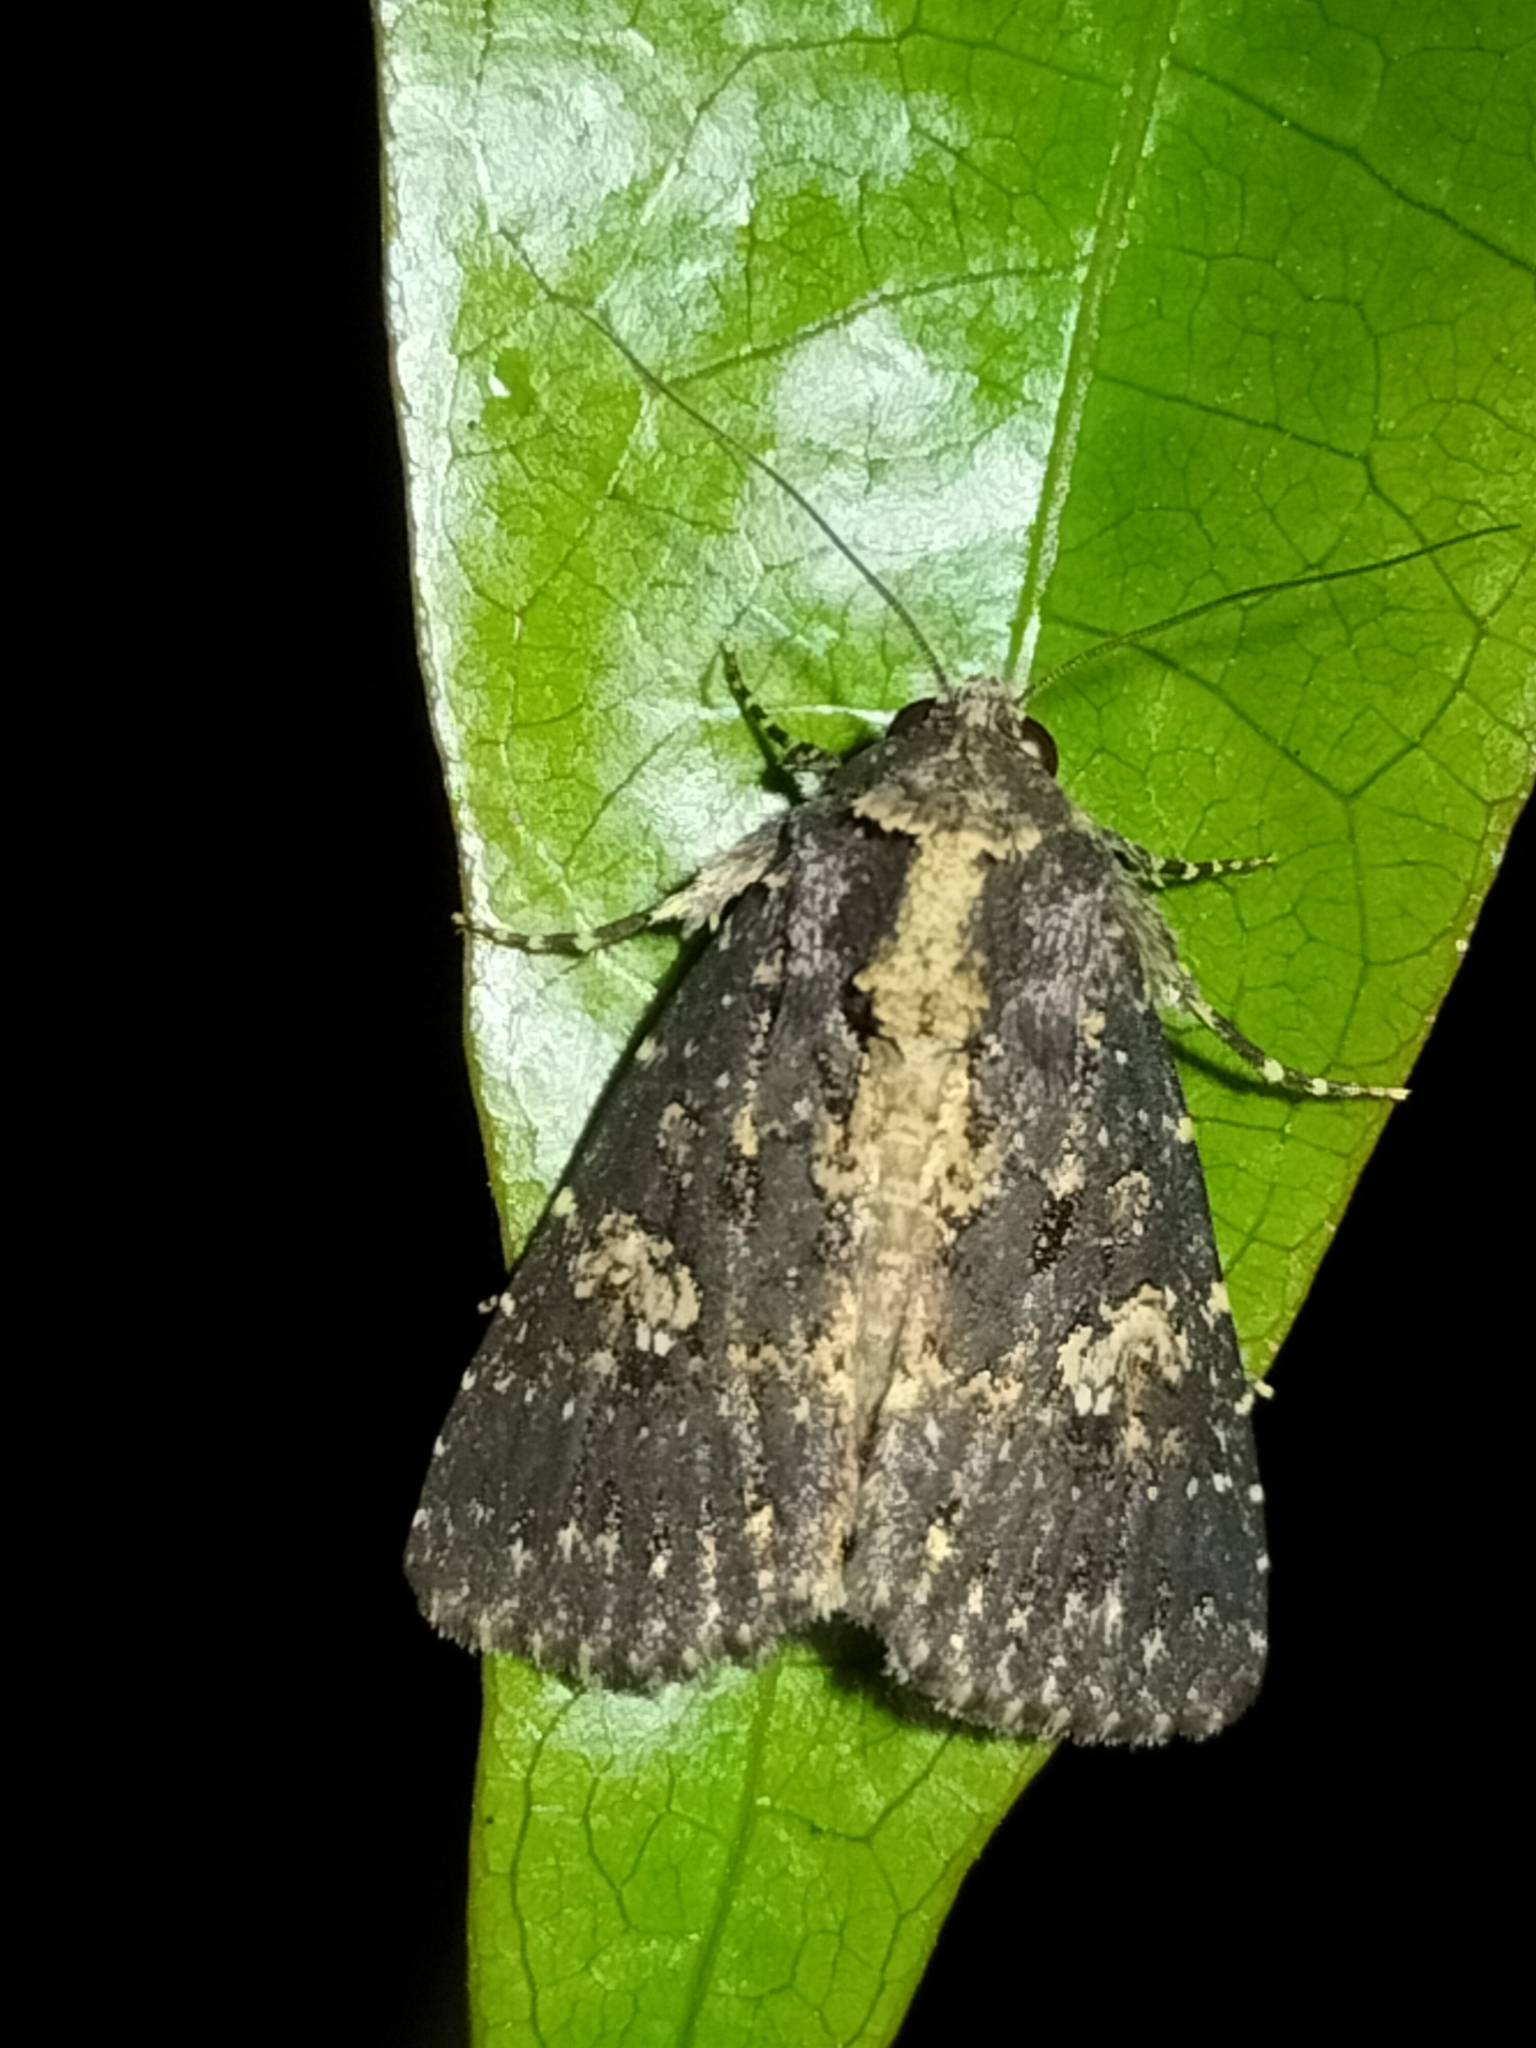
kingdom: Animalia
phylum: Arthropoda
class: Insecta
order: Lepidoptera
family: Noctuidae
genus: Condica
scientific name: Condica dolorosa
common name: Cutworm
